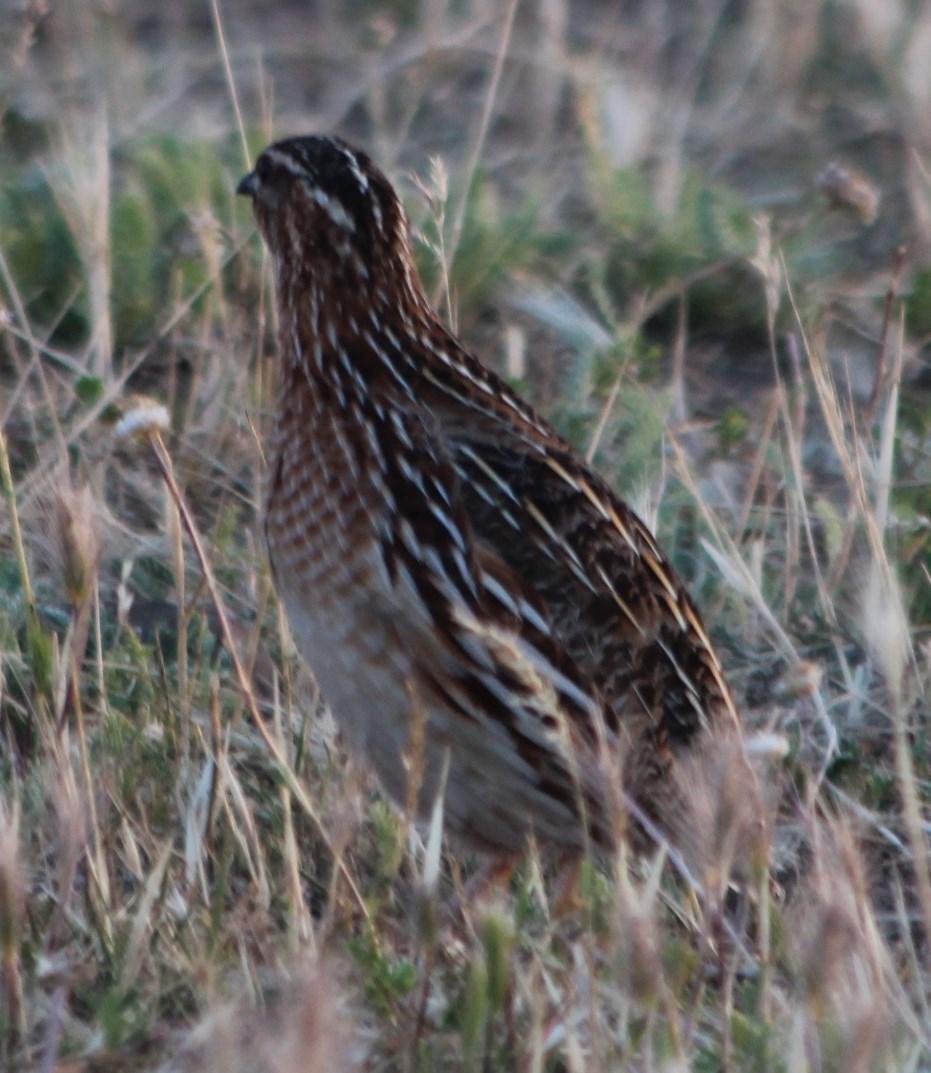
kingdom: Animalia
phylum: Chordata
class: Aves
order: Galliformes
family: Phasianidae
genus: Coturnix
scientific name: Coturnix coturnix
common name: Common quail
